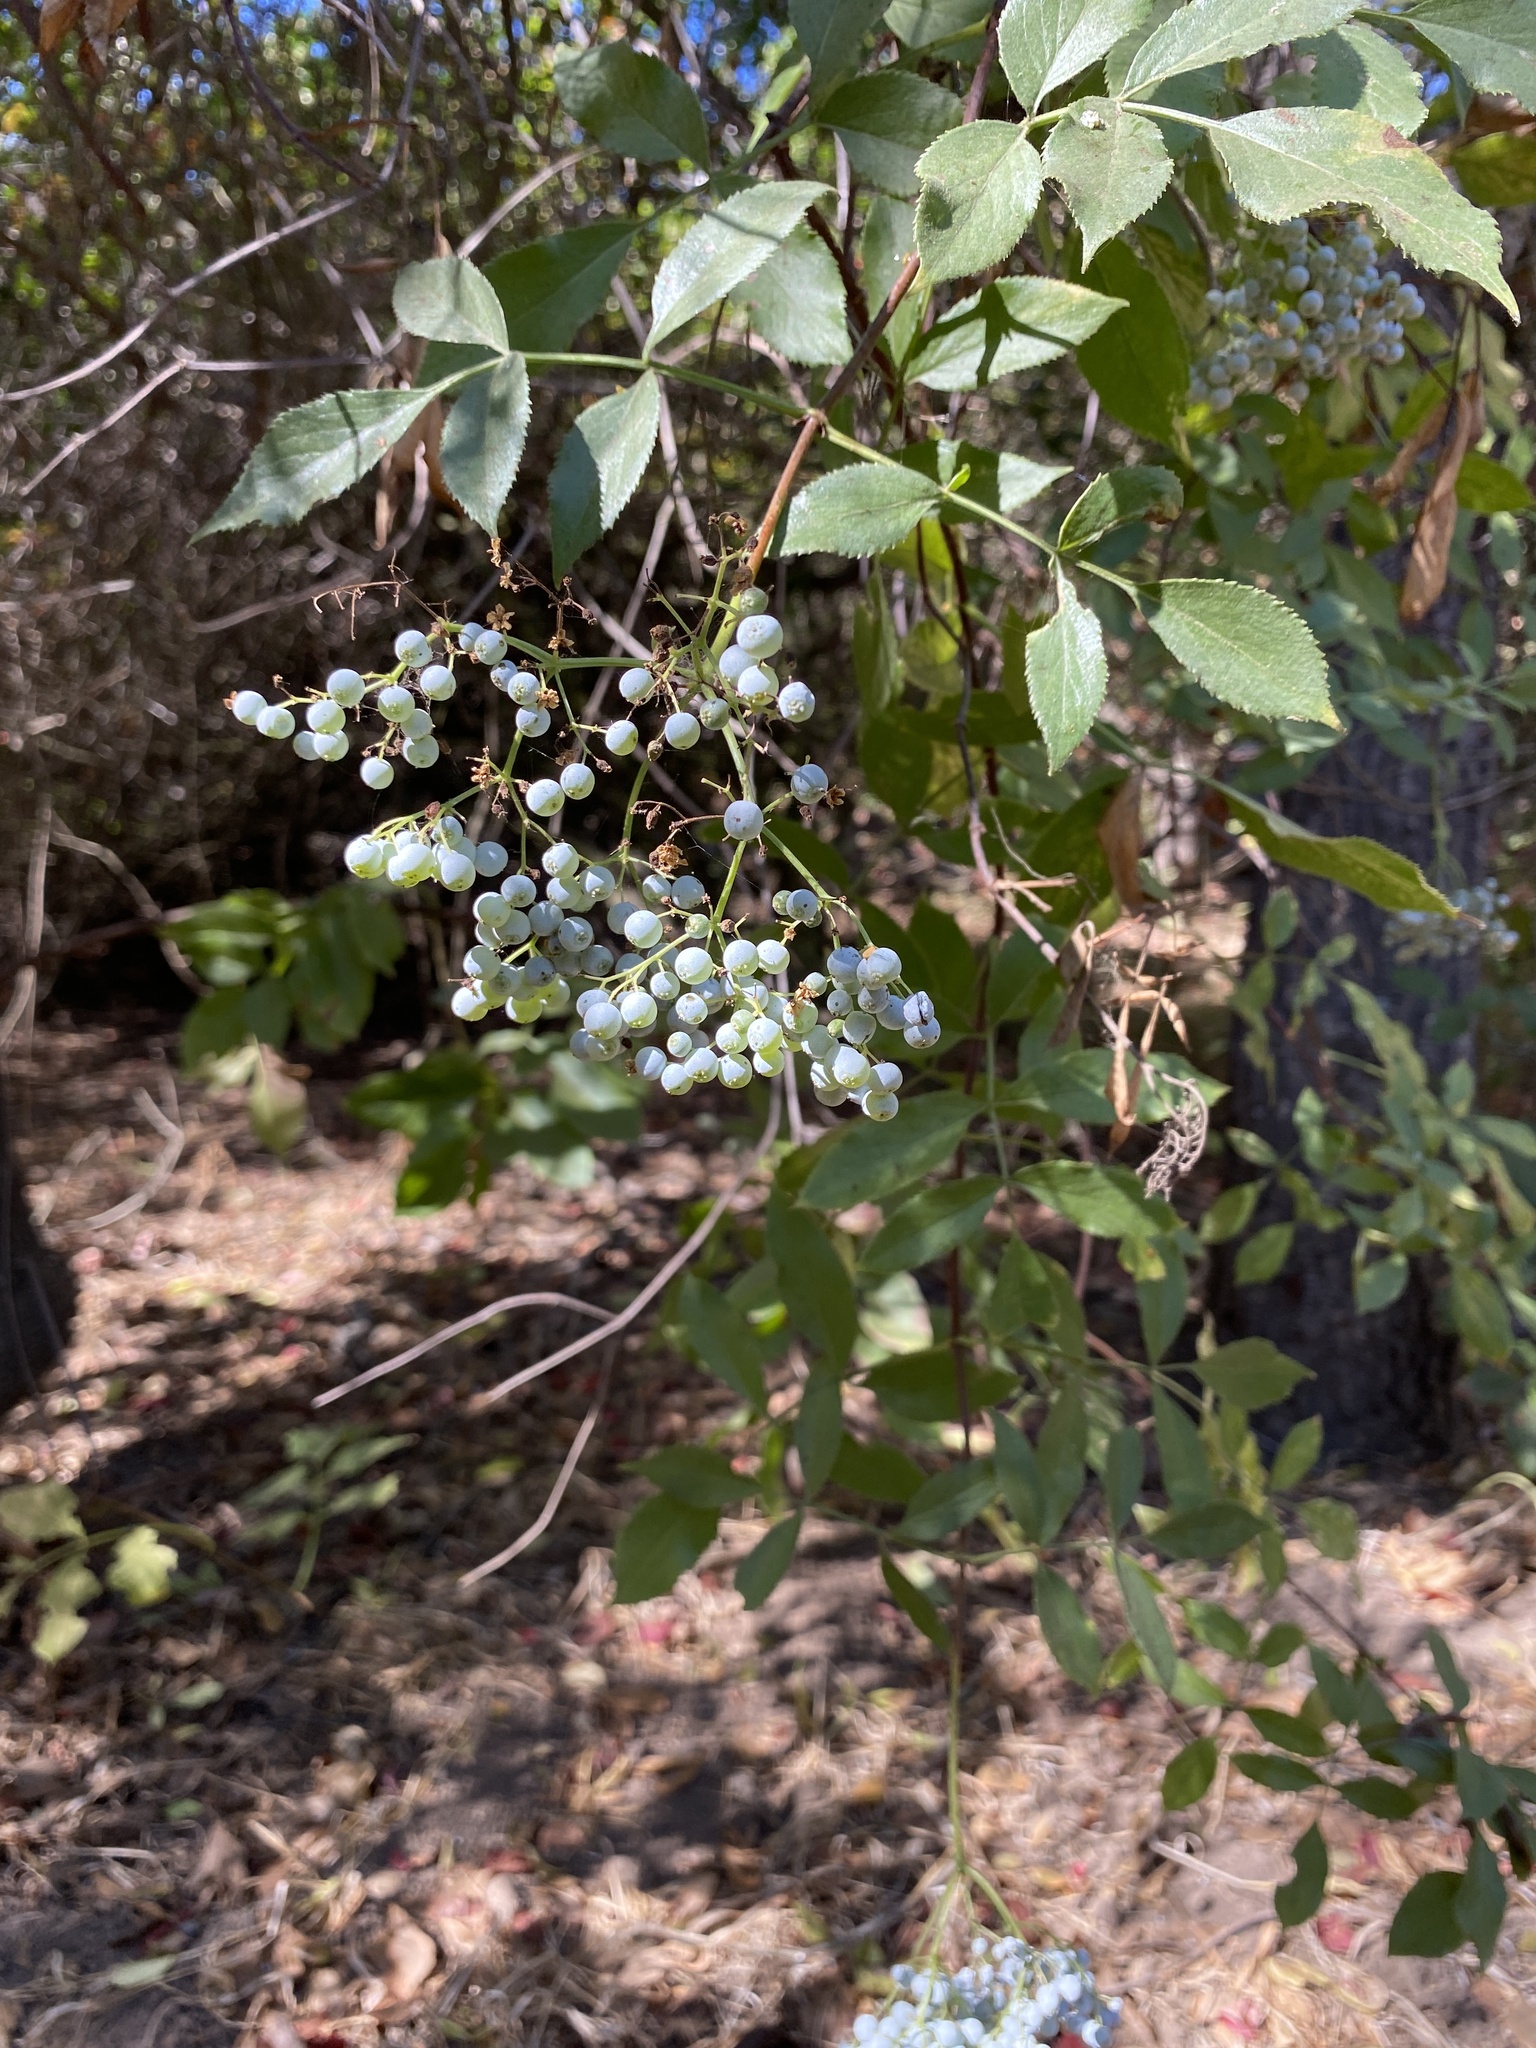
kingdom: Plantae
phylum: Tracheophyta
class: Magnoliopsida
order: Dipsacales
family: Viburnaceae
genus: Sambucus
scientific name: Sambucus cerulea
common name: Blue elder
